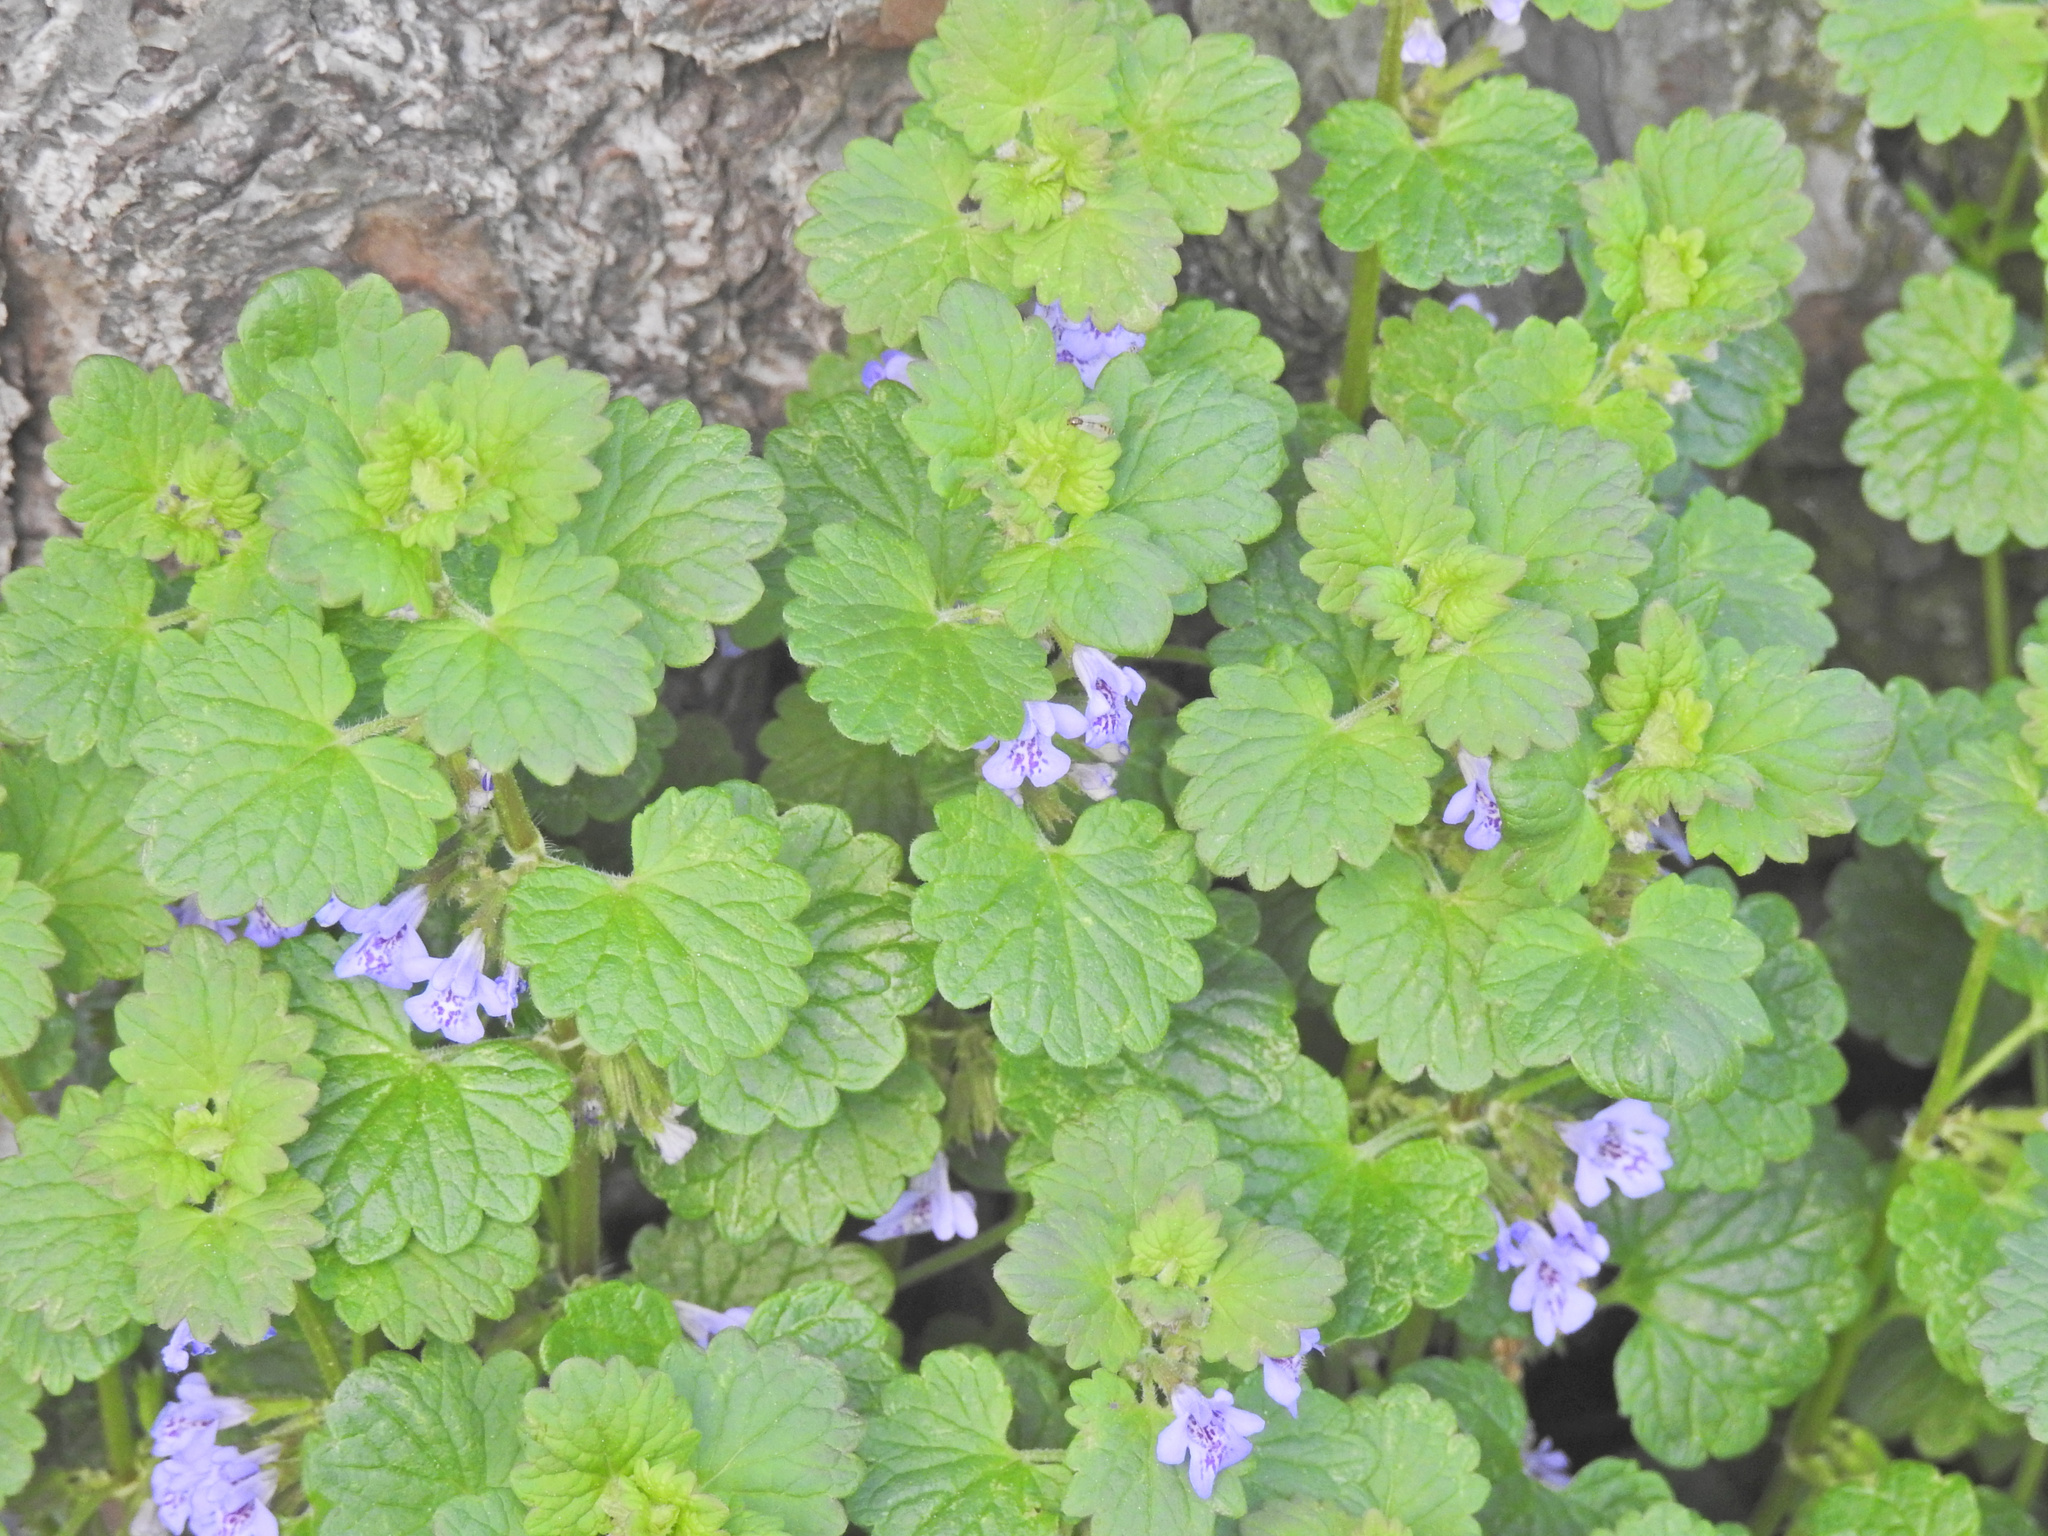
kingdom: Plantae
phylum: Tracheophyta
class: Magnoliopsida
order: Lamiales
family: Lamiaceae
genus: Glechoma
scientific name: Glechoma hederacea
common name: Ground ivy
